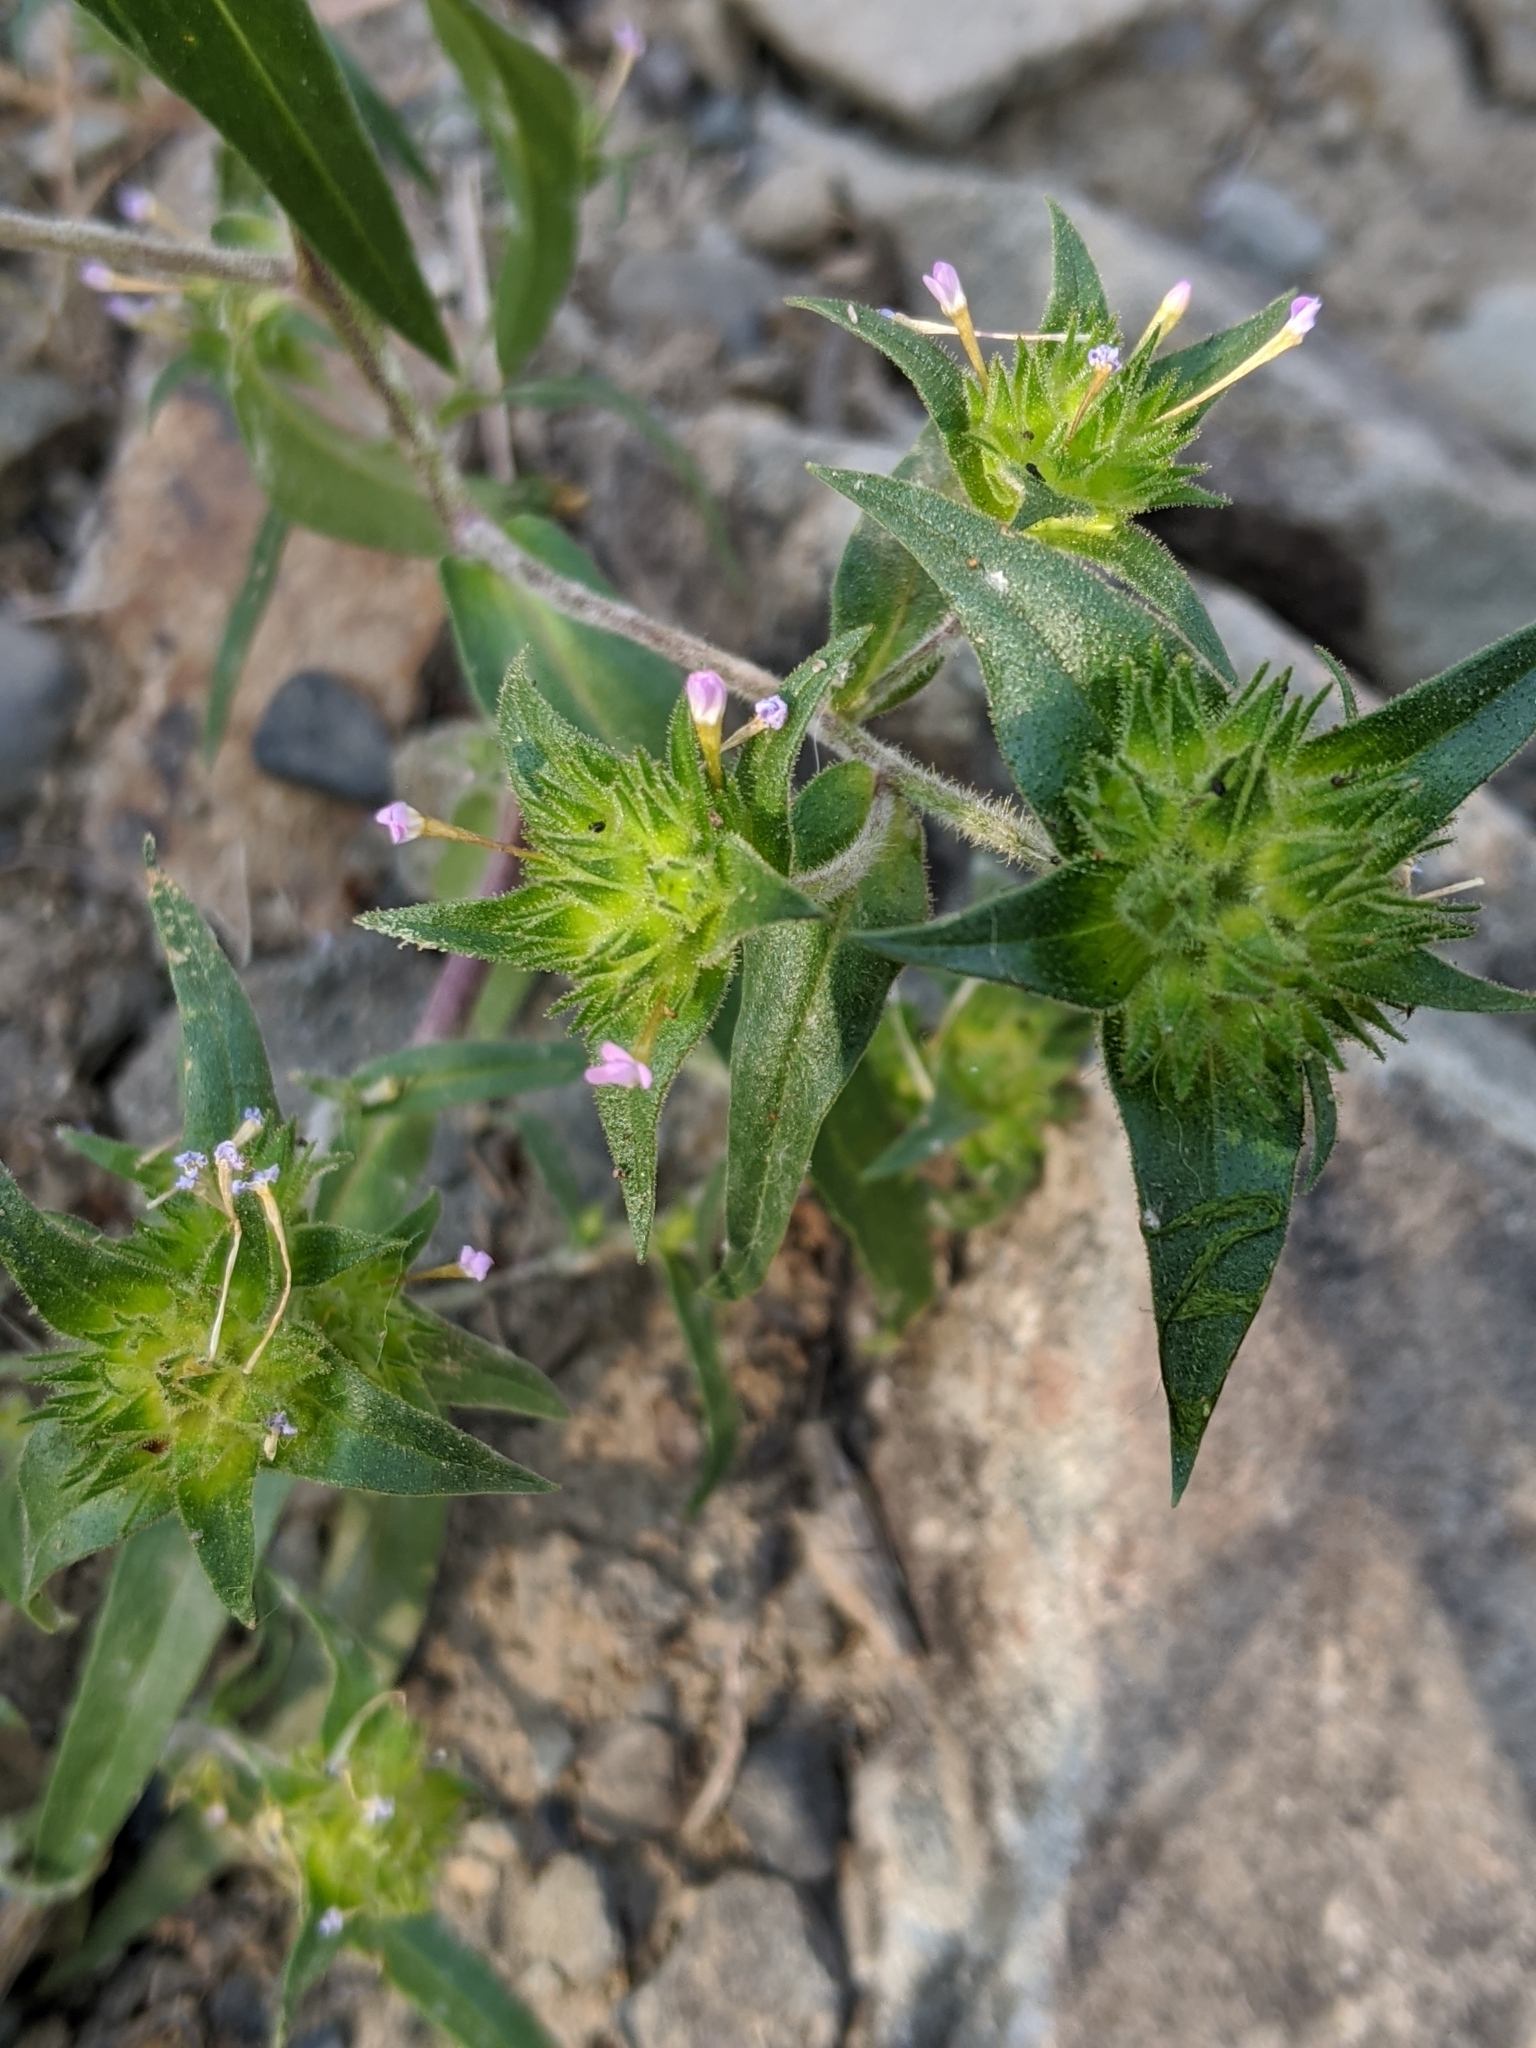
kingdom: Plantae
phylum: Tracheophyta
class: Magnoliopsida
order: Ericales
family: Polemoniaceae
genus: Collomia
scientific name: Collomia linearis
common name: Tiny trumpet
